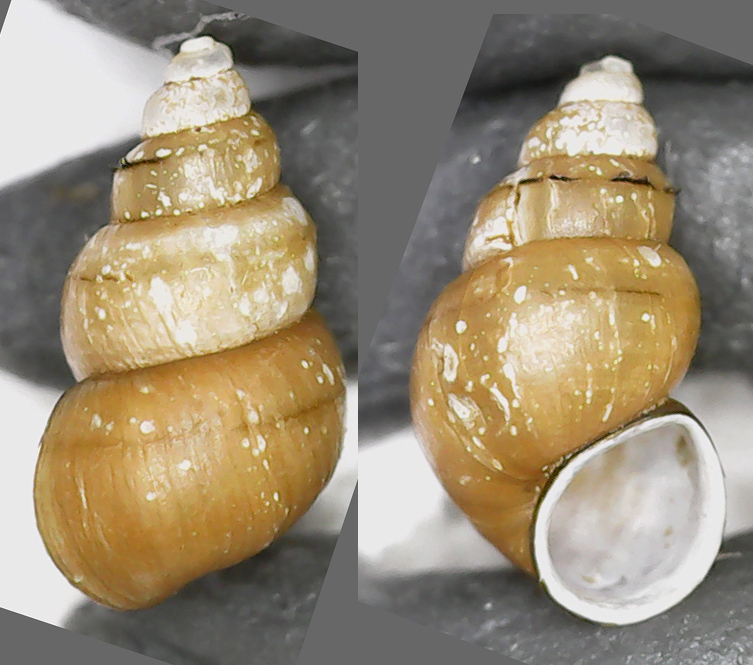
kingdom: Animalia
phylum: Mollusca
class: Gastropoda
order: Littorinimorpha
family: Tateidae
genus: Potamopyrgus
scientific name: Potamopyrgus antipodarum
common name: Jenkins' spire snail
